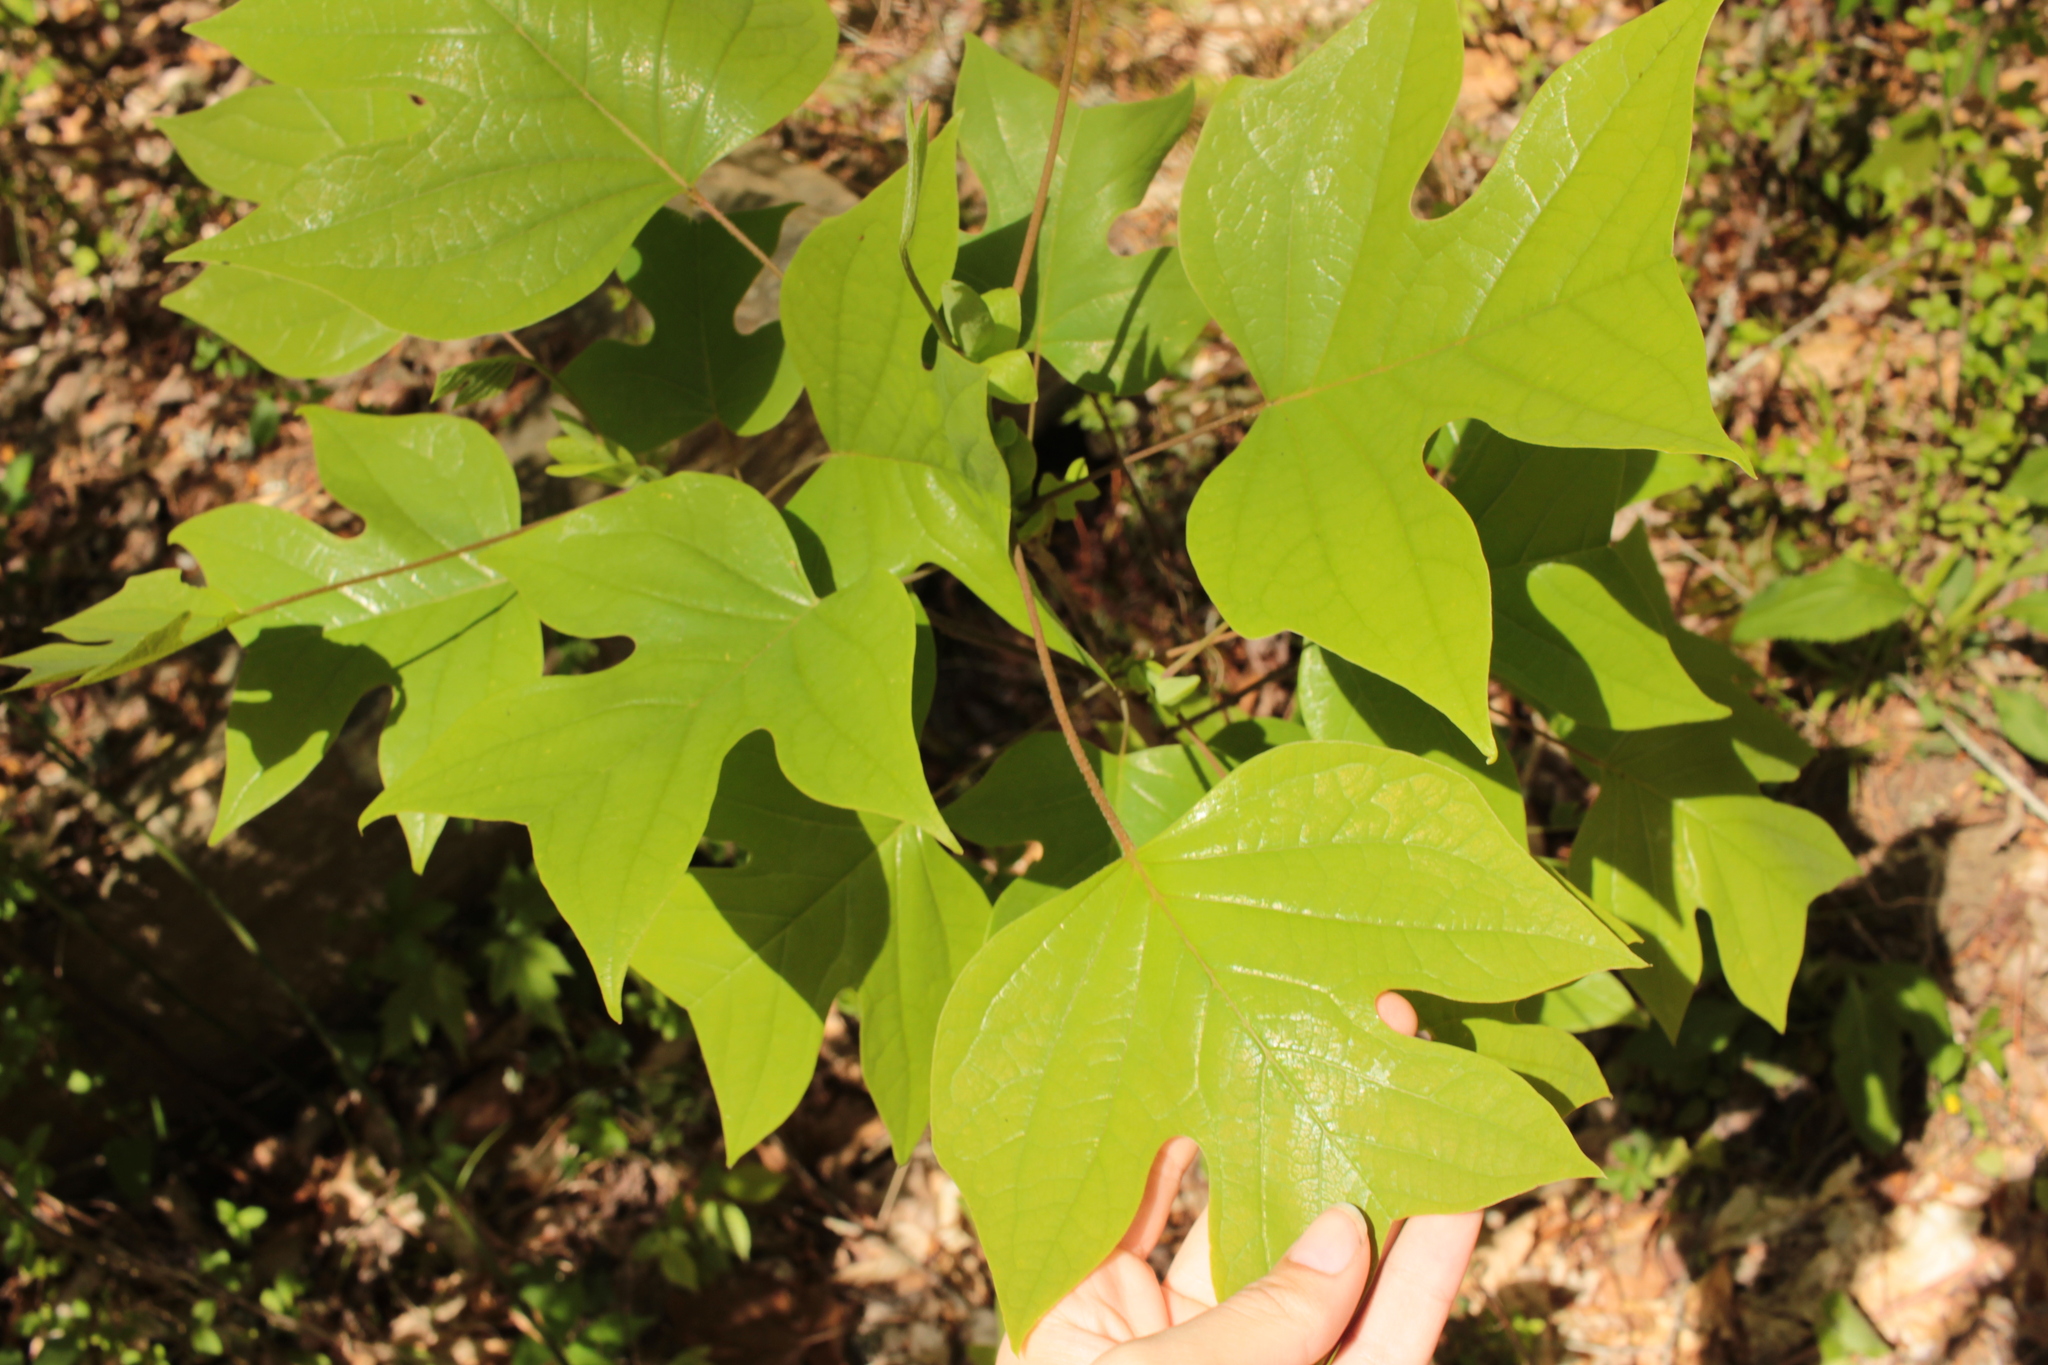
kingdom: Plantae
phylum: Tracheophyta
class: Magnoliopsida
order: Magnoliales
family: Magnoliaceae
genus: Liriodendron
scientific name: Liriodendron tulipifera
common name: Tulip tree
